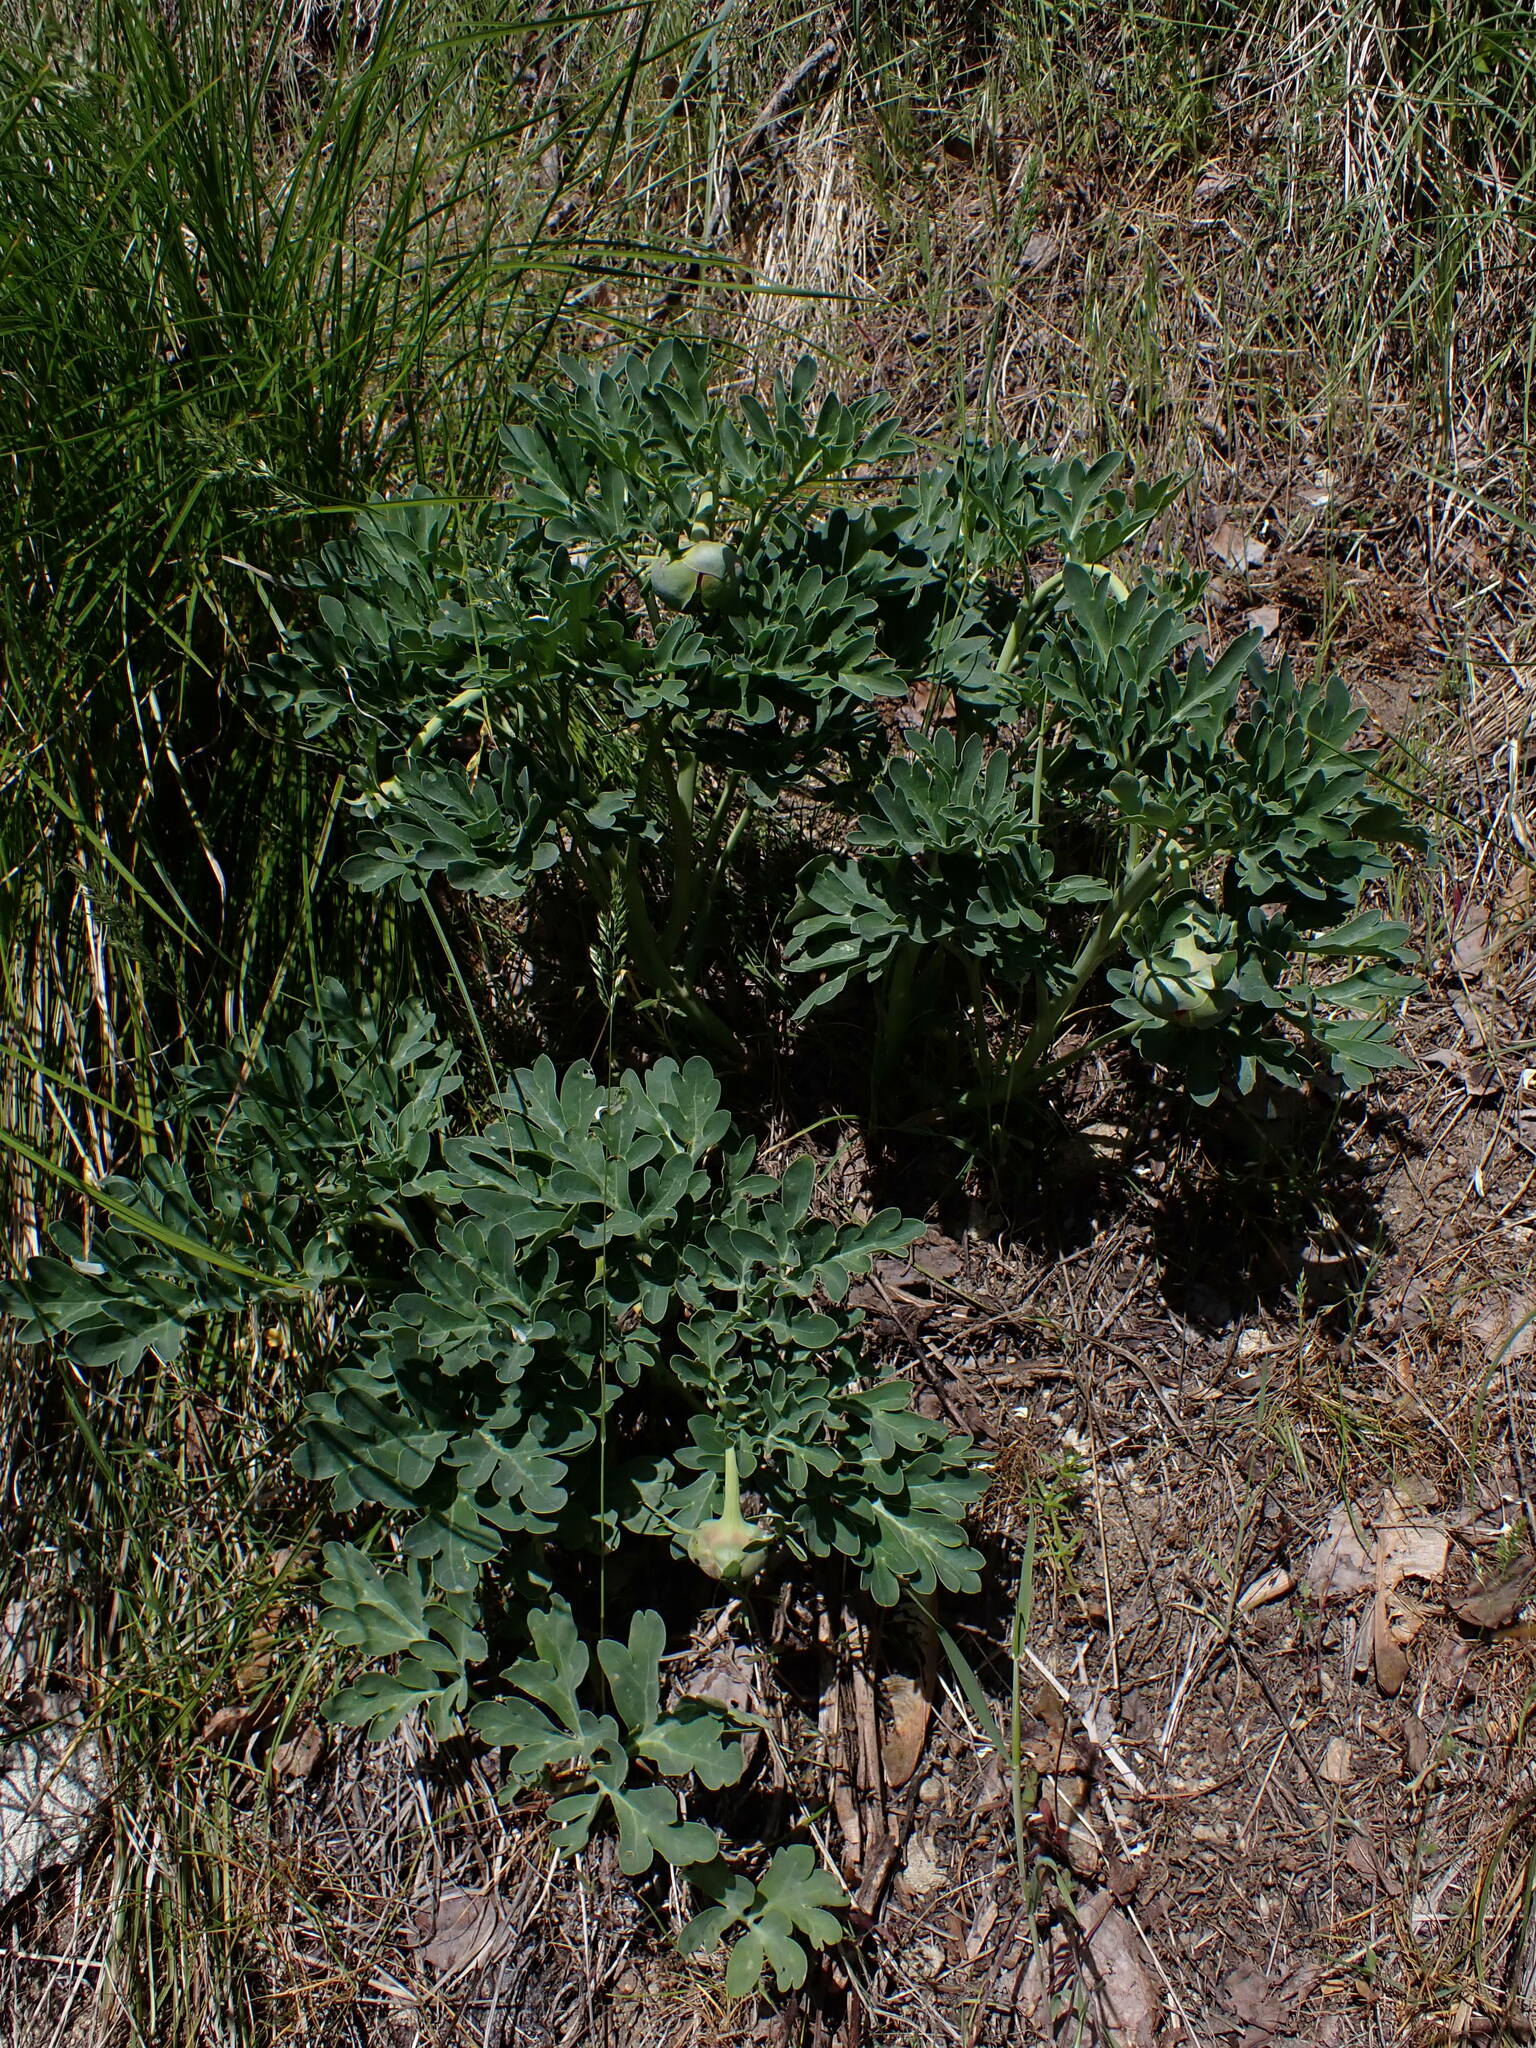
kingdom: Plantae
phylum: Tracheophyta
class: Magnoliopsida
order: Saxifragales
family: Paeoniaceae
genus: Paeonia
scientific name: Paeonia brownii
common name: Brown's peony
